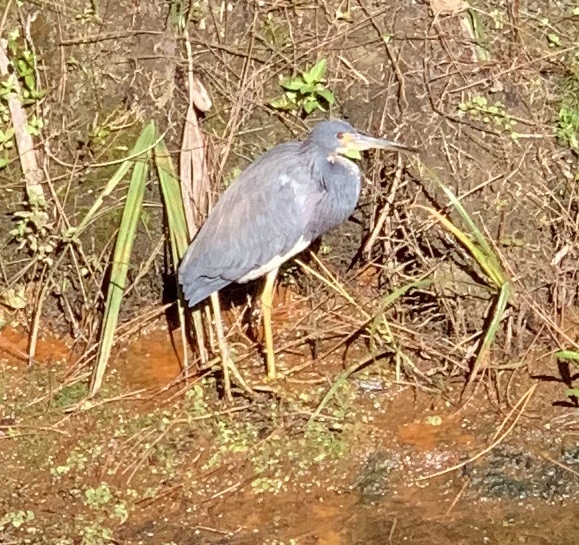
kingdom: Animalia
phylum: Chordata
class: Aves
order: Pelecaniformes
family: Ardeidae
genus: Egretta
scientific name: Egretta tricolor
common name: Tricolored heron
